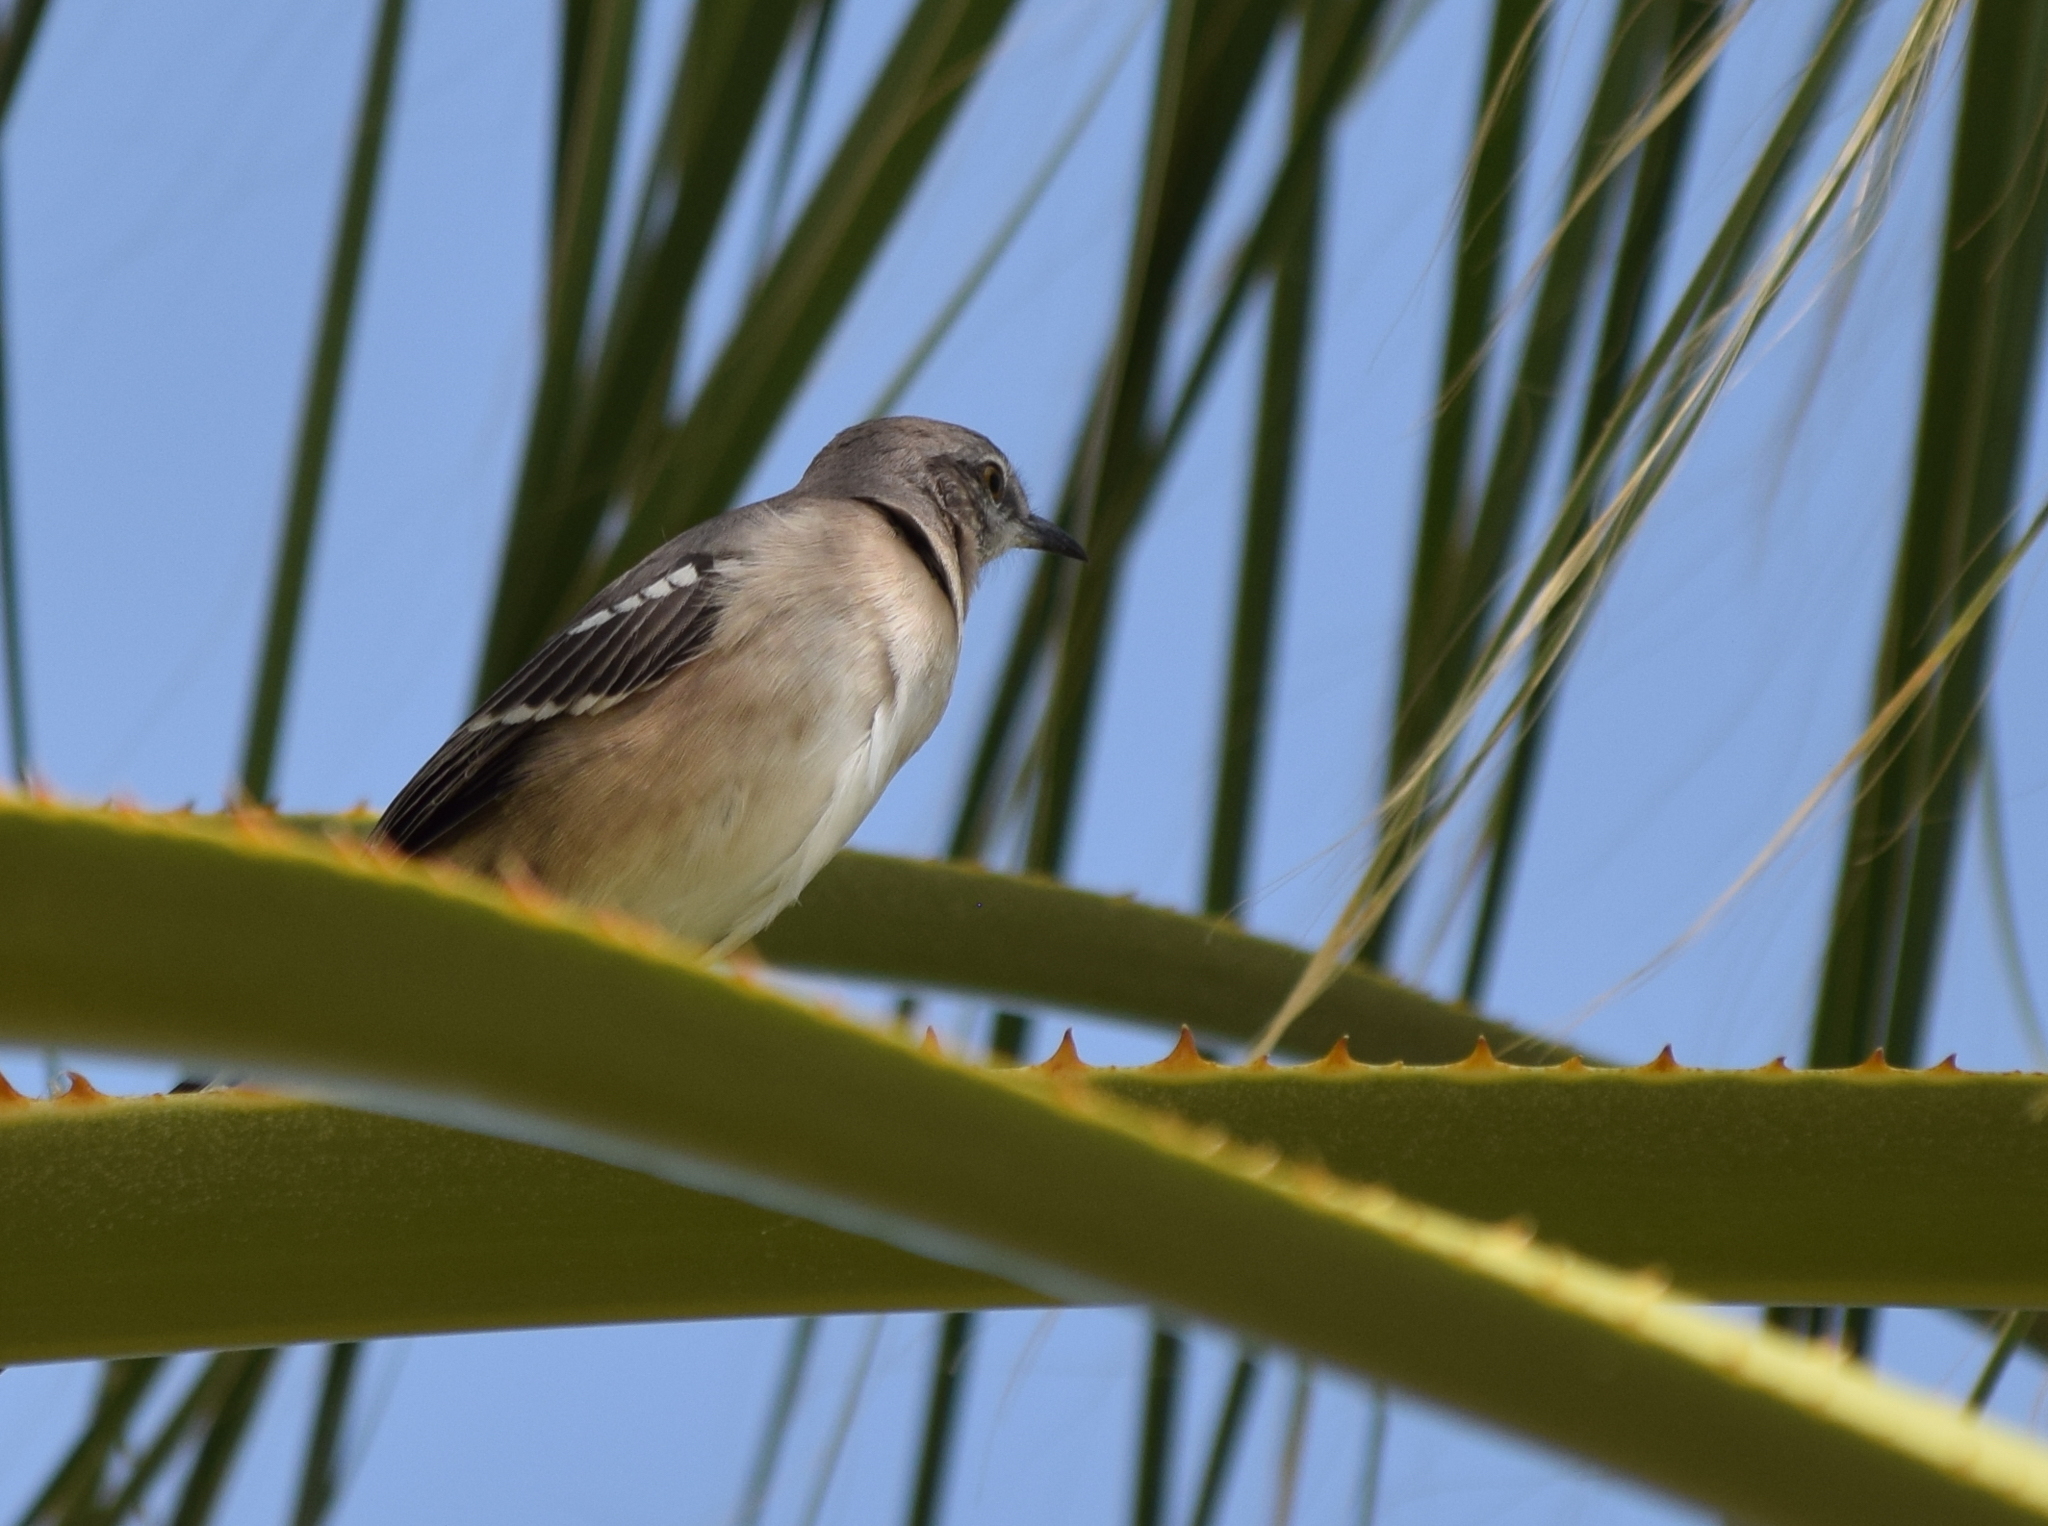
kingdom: Animalia
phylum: Chordata
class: Aves
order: Passeriformes
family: Mimidae
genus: Mimus
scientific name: Mimus polyglottos
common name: Northern mockingbird
